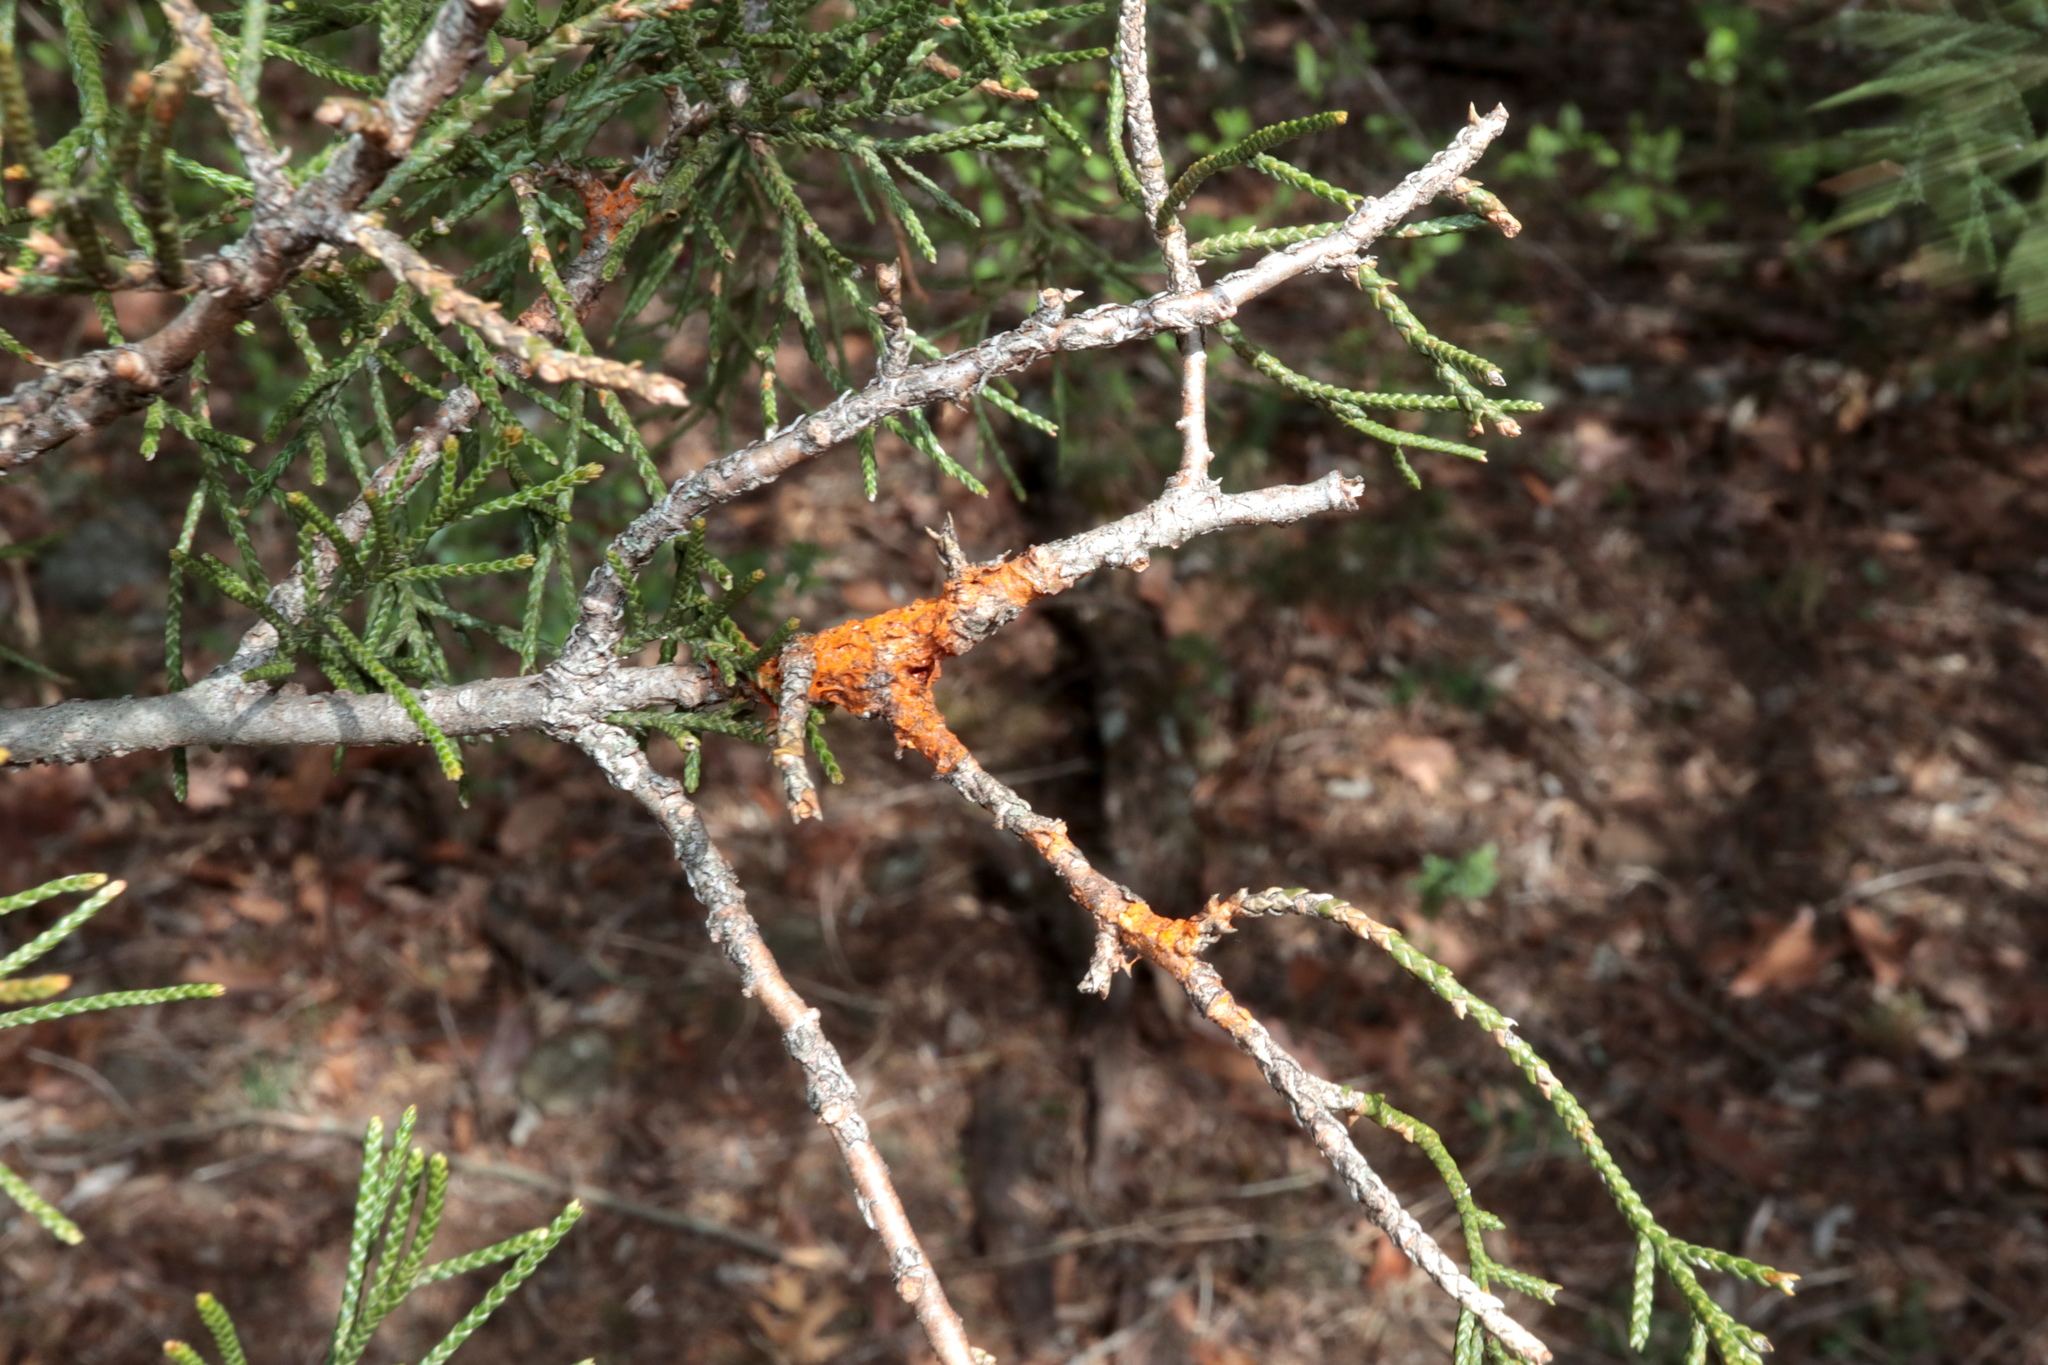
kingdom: Fungi
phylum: Basidiomycota
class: Pucciniomycetes
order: Pucciniales
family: Gymnosporangiaceae
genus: Gymnosporangium
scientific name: Gymnosporangium clavipes
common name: Quince rust
